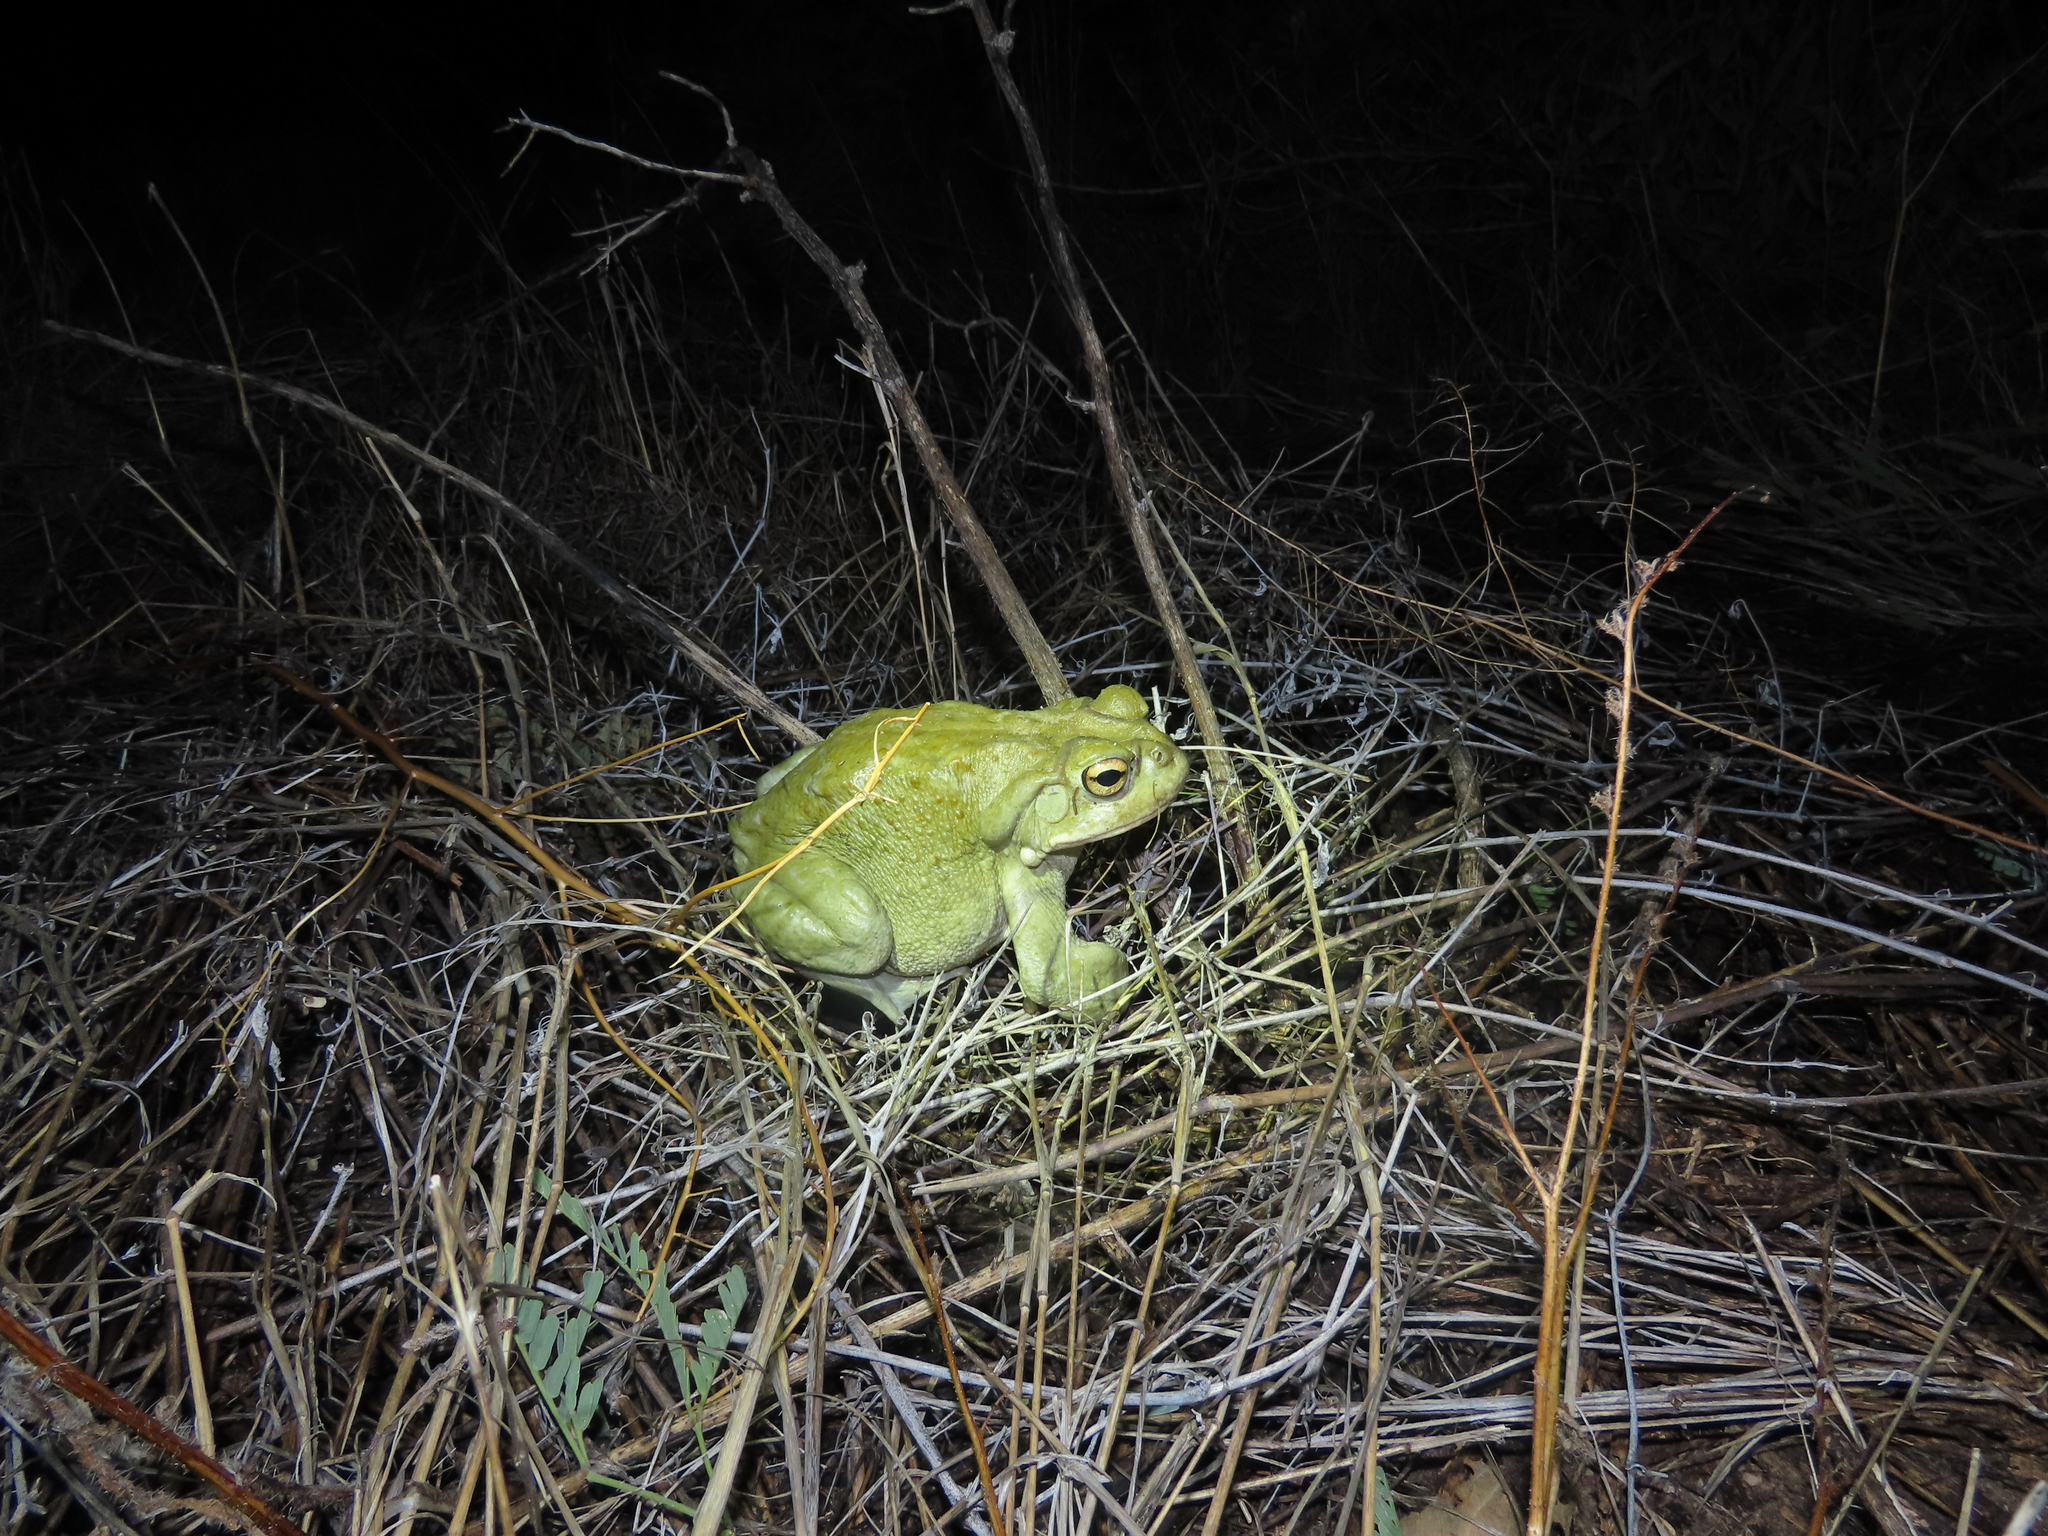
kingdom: Animalia
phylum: Chordata
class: Amphibia
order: Anura
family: Bufonidae
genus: Incilius
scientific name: Incilius alvarius
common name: Sonoran desert toad
